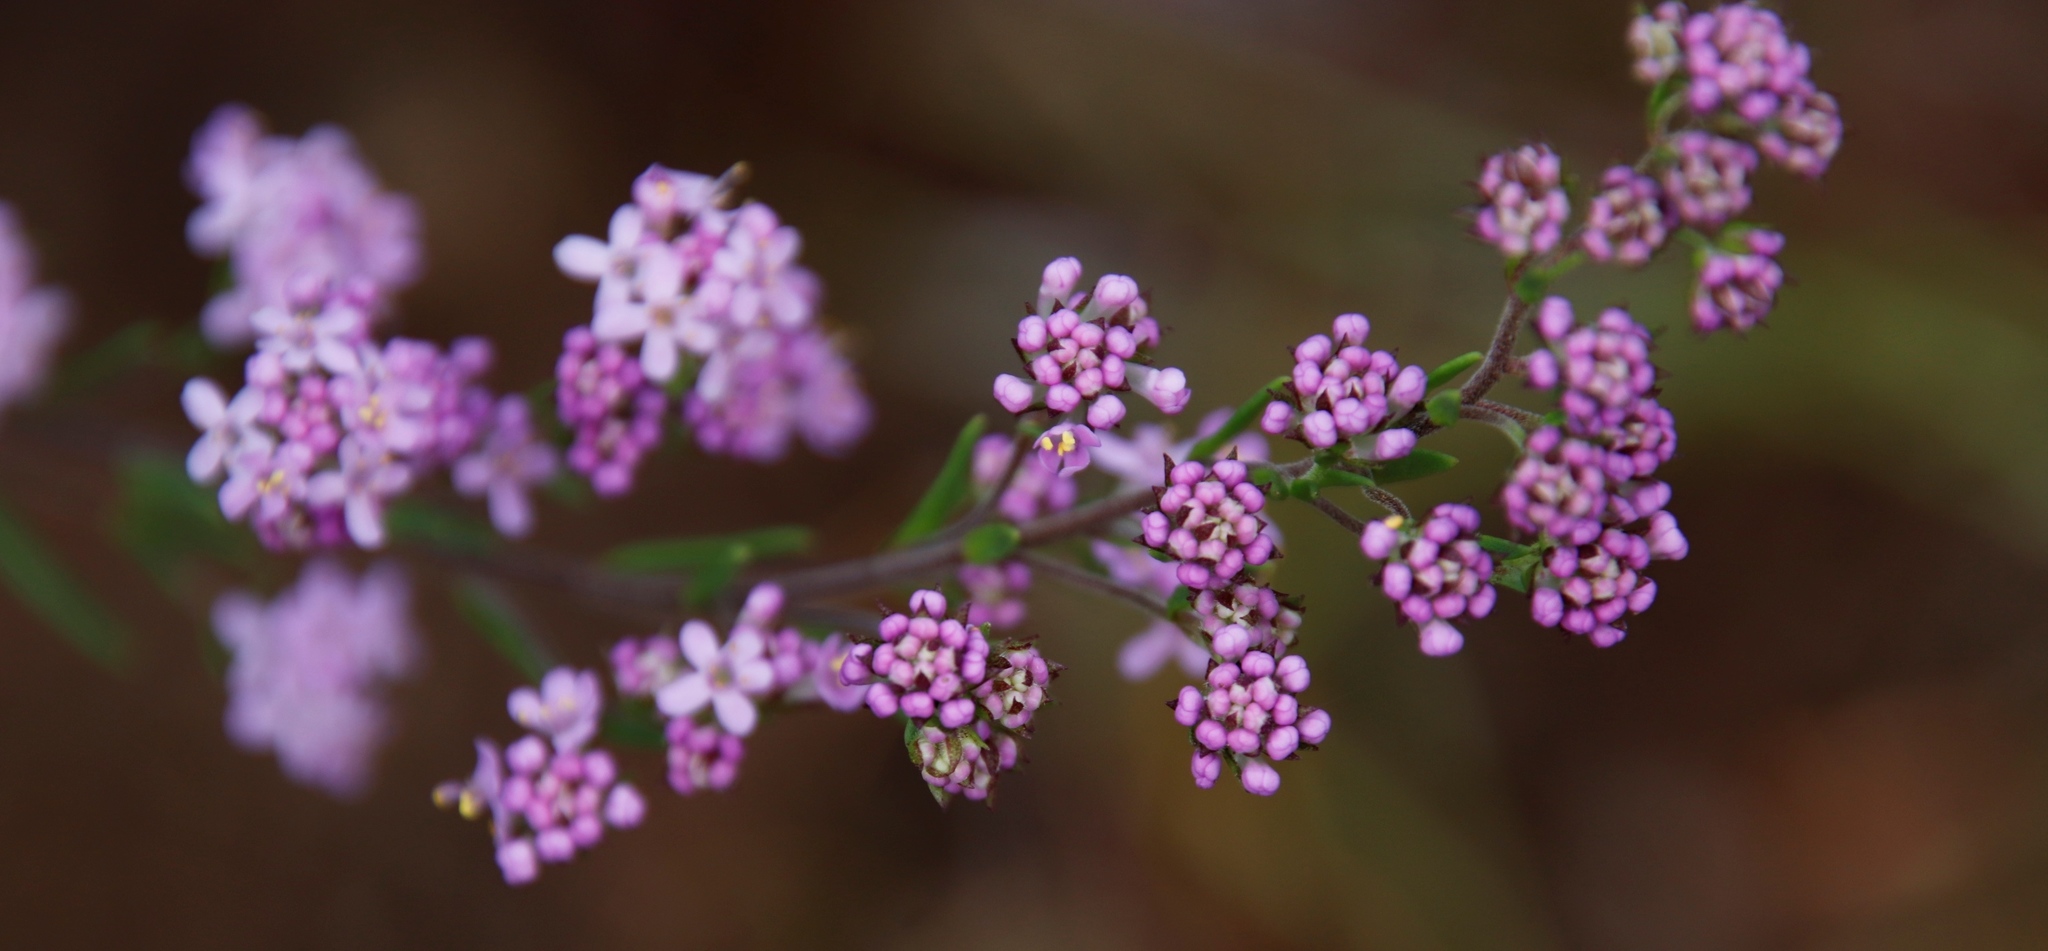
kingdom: Plantae
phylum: Tracheophyta
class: Magnoliopsida
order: Lamiales
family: Scrophulariaceae
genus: Selago
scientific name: Selago galpinii
